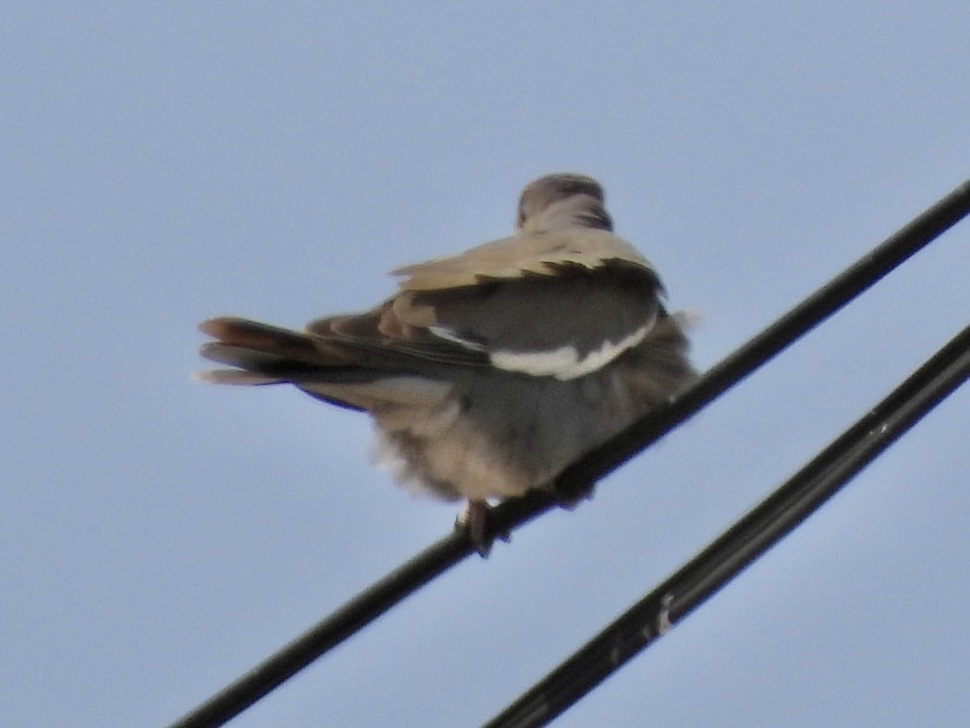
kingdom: Animalia
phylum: Chordata
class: Aves
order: Columbiformes
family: Columbidae
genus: Zenaida
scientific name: Zenaida asiatica
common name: White-winged dove
